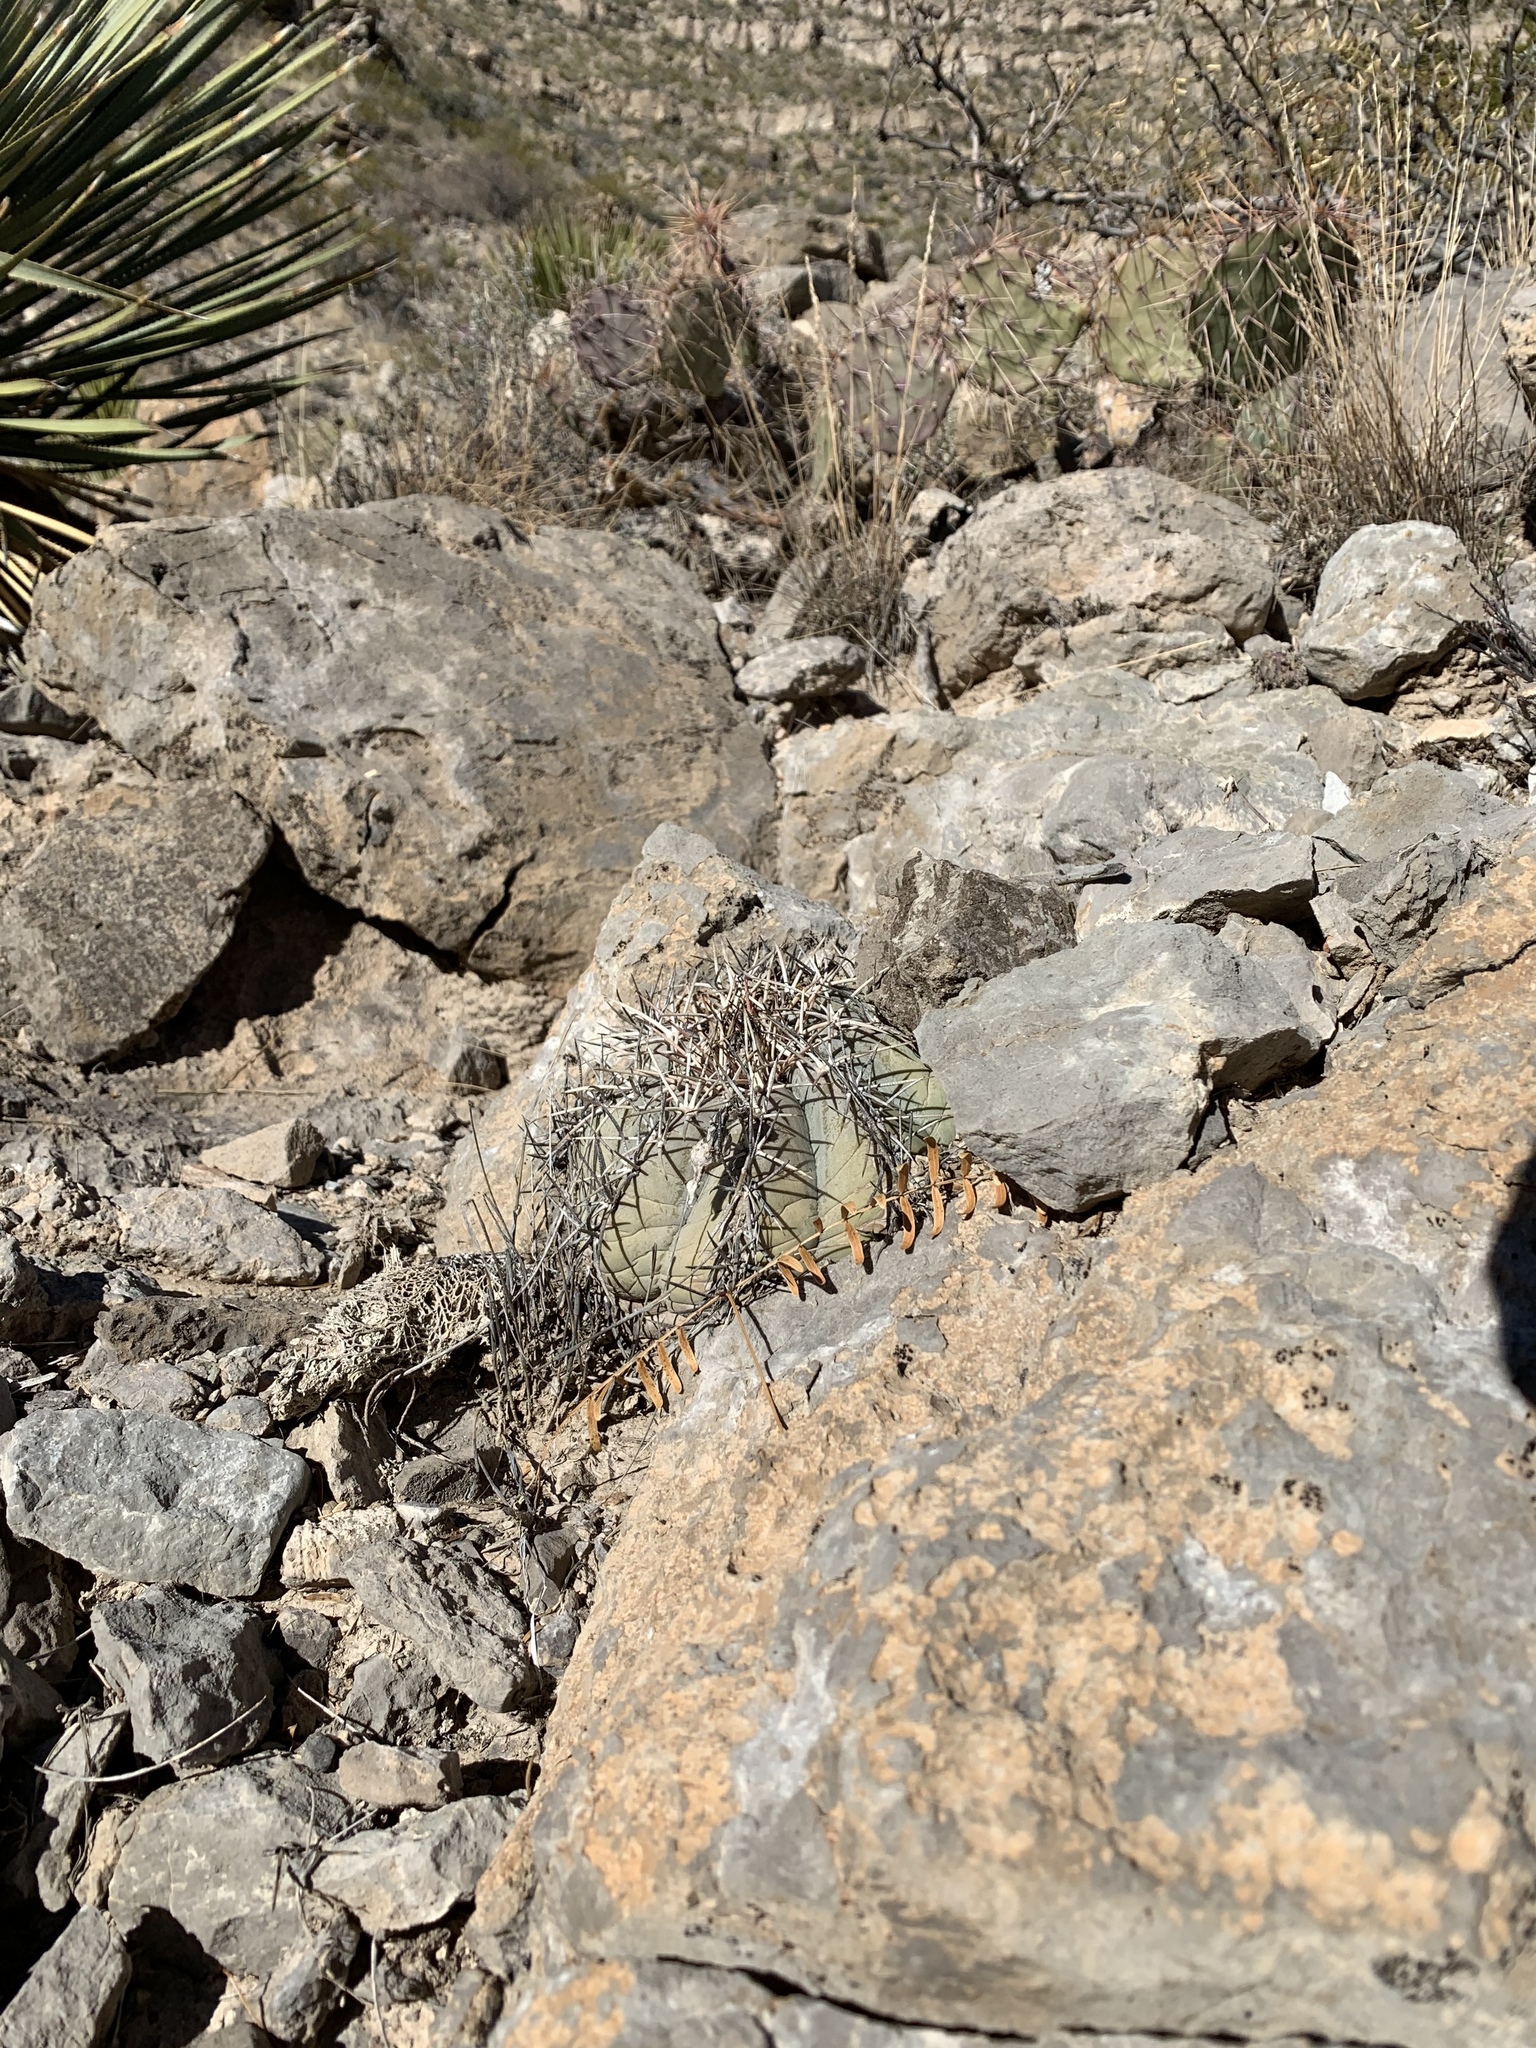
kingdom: Plantae
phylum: Tracheophyta
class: Magnoliopsida
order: Caryophyllales
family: Cactaceae
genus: Echinocactus
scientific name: Echinocactus horizonthalonius
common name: Devilshead
